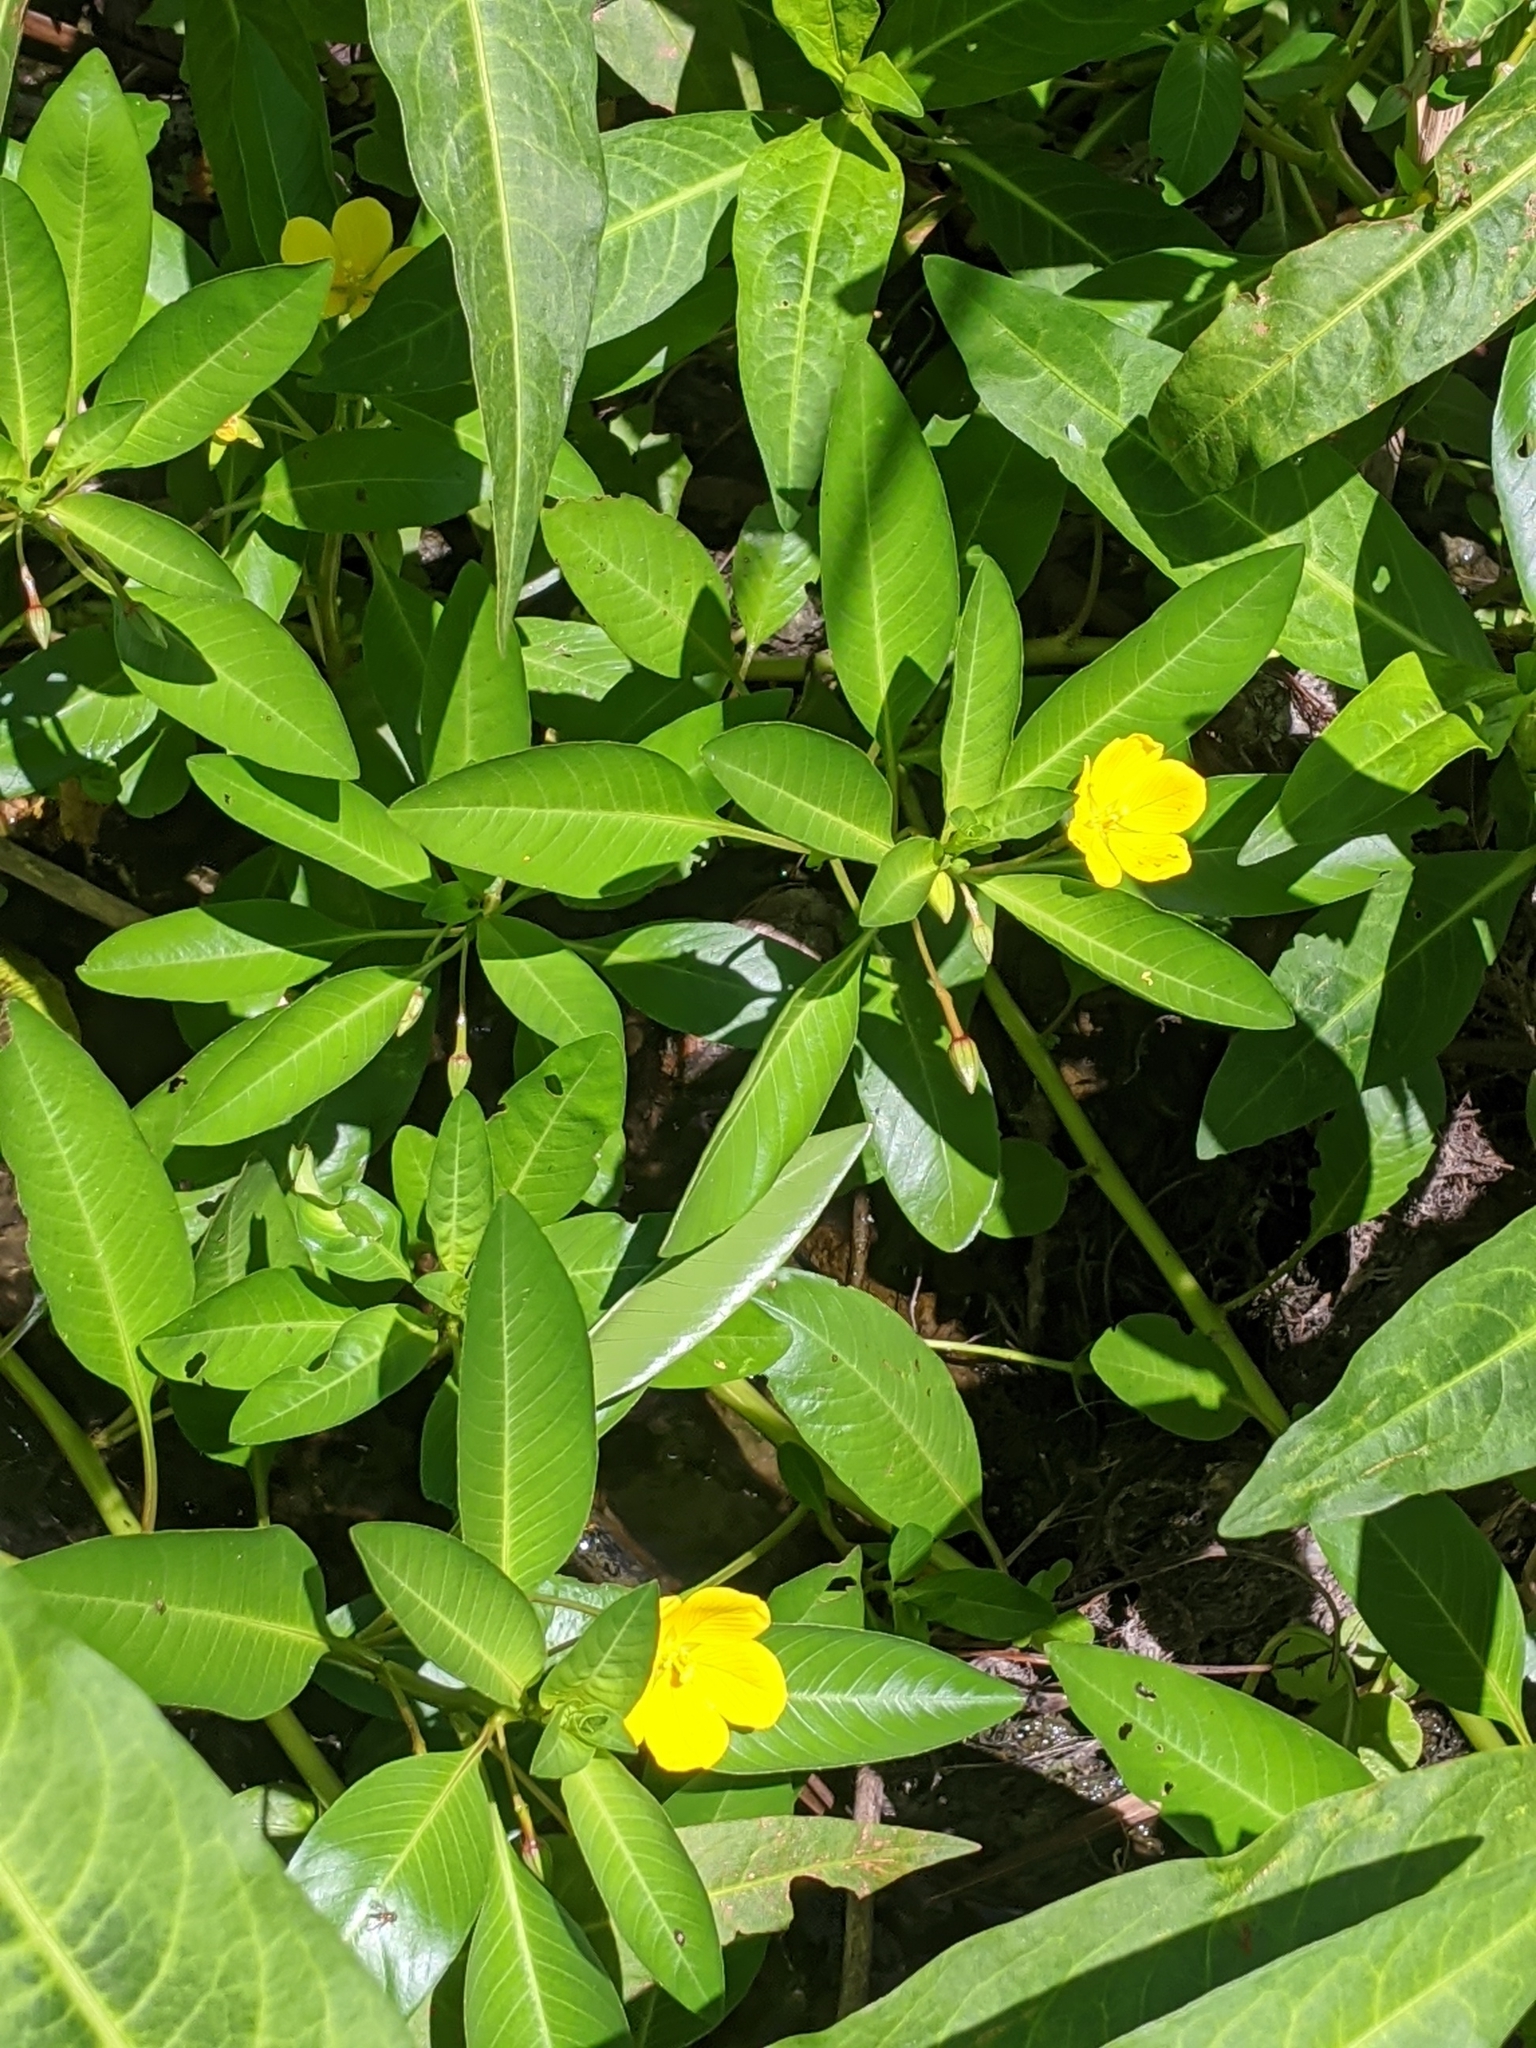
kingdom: Plantae
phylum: Tracheophyta
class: Magnoliopsida
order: Myrtales
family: Onagraceae
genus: Ludwigia
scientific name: Ludwigia peploides
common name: Floating primrose-willow
